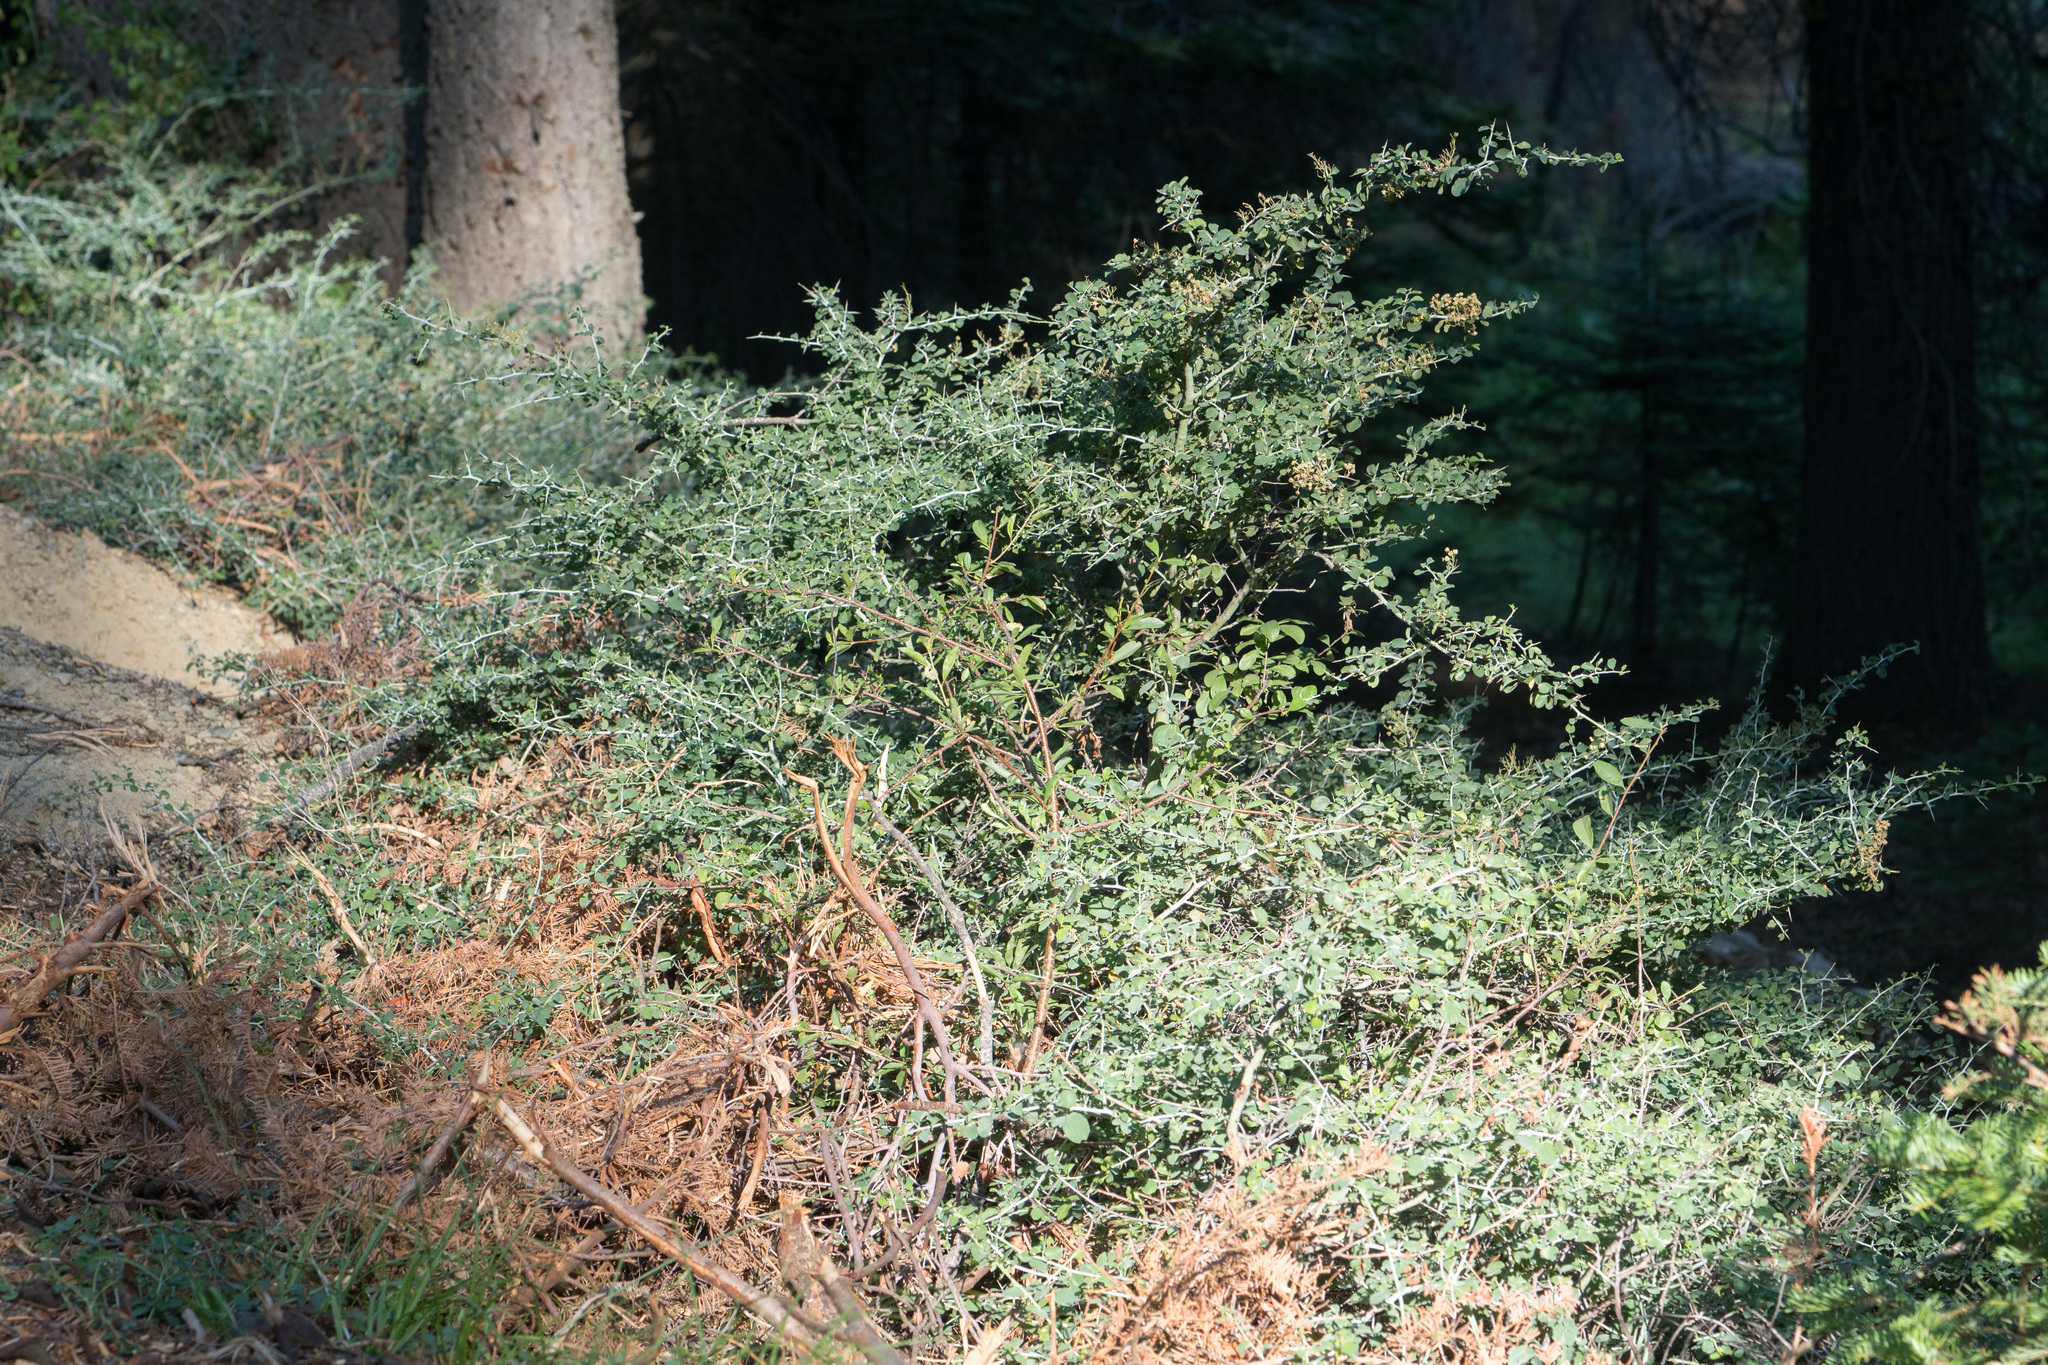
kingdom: Plantae
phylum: Tracheophyta
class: Magnoliopsida
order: Rosales
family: Rhamnaceae
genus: Ceanothus
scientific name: Ceanothus cordulatus
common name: Mountain whitethorn
